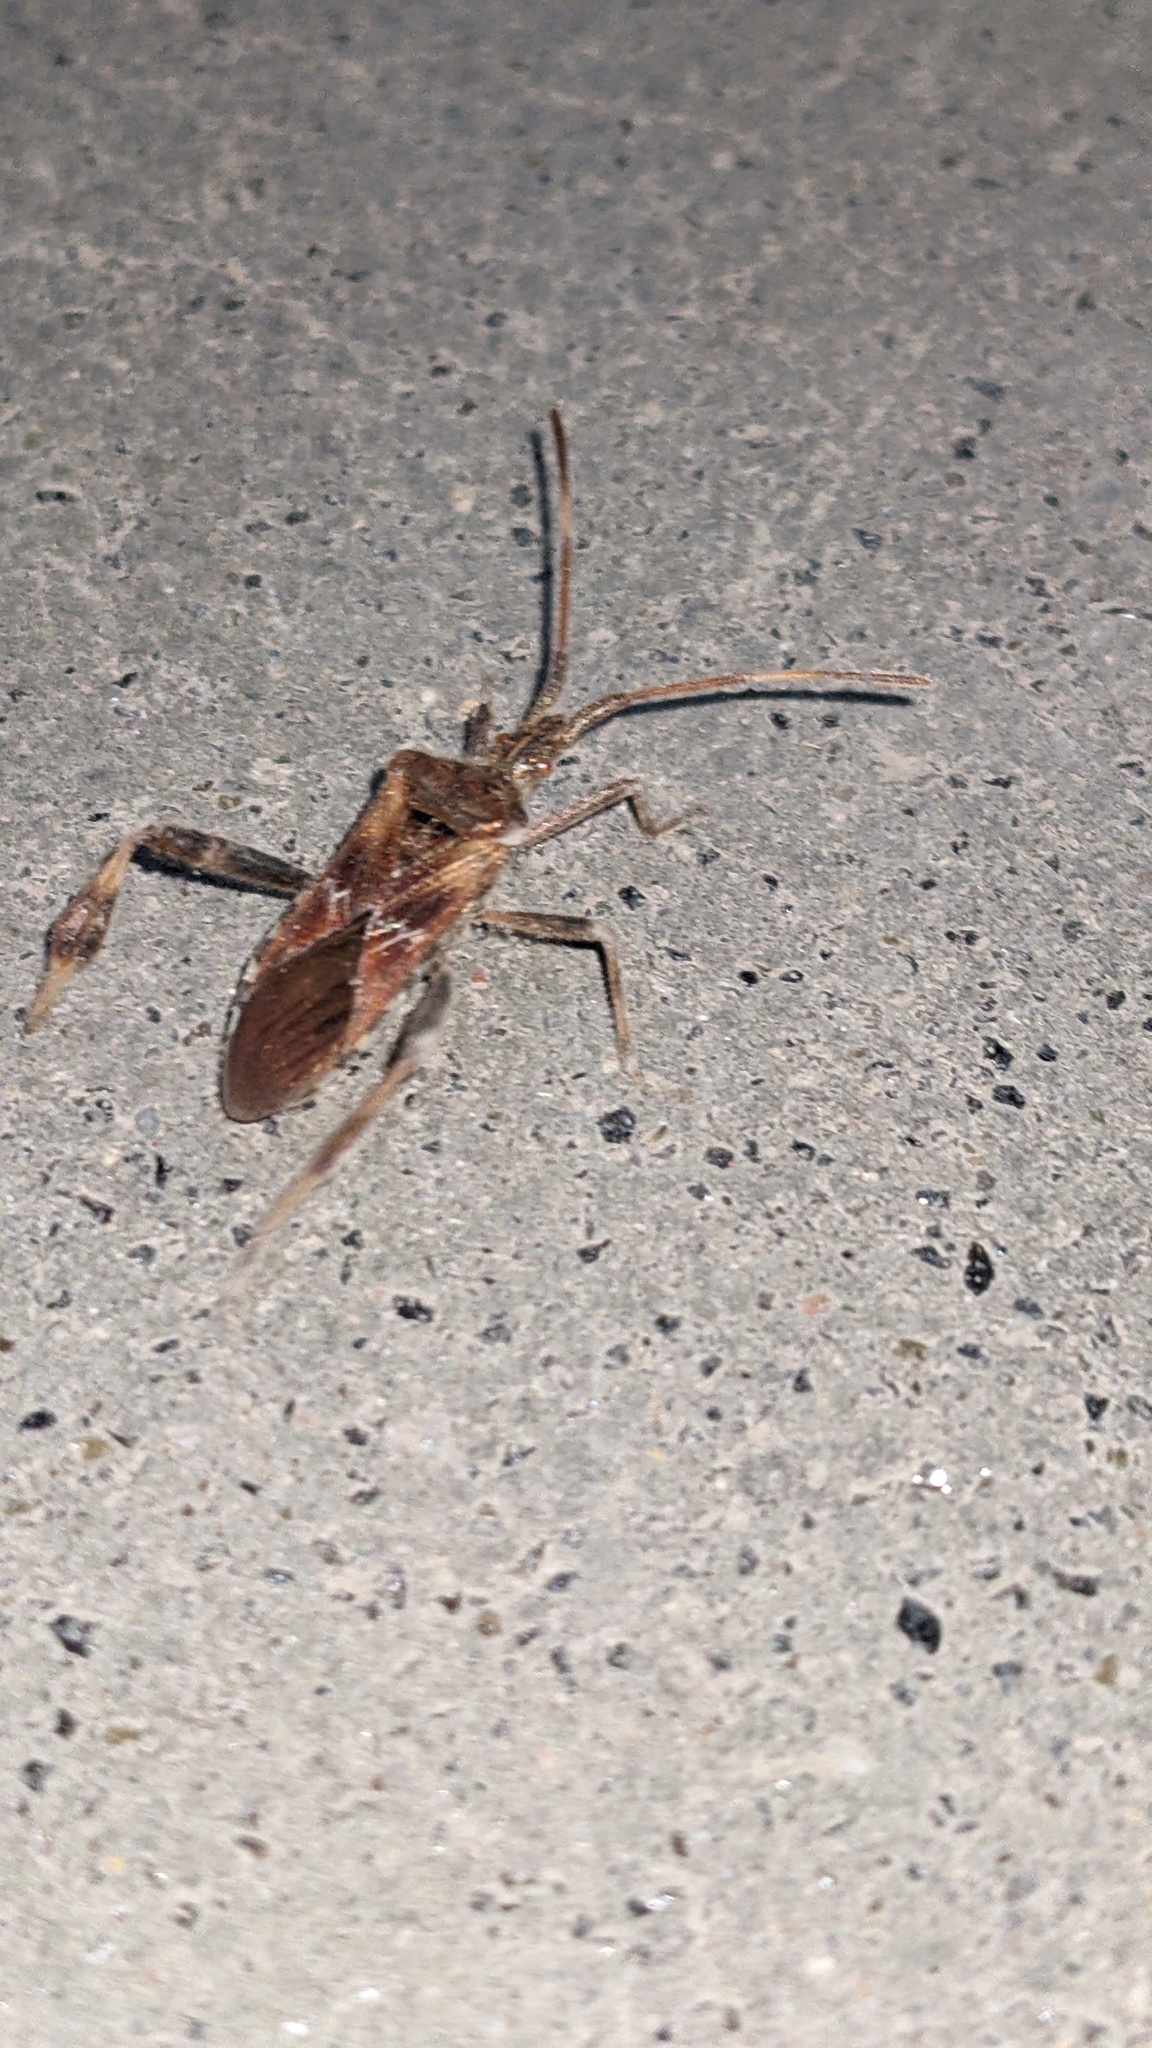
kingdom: Animalia
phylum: Arthropoda
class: Insecta
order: Hemiptera
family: Coreidae
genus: Leptoglossus
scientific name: Leptoglossus occidentalis
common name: Western conifer-seed bug
